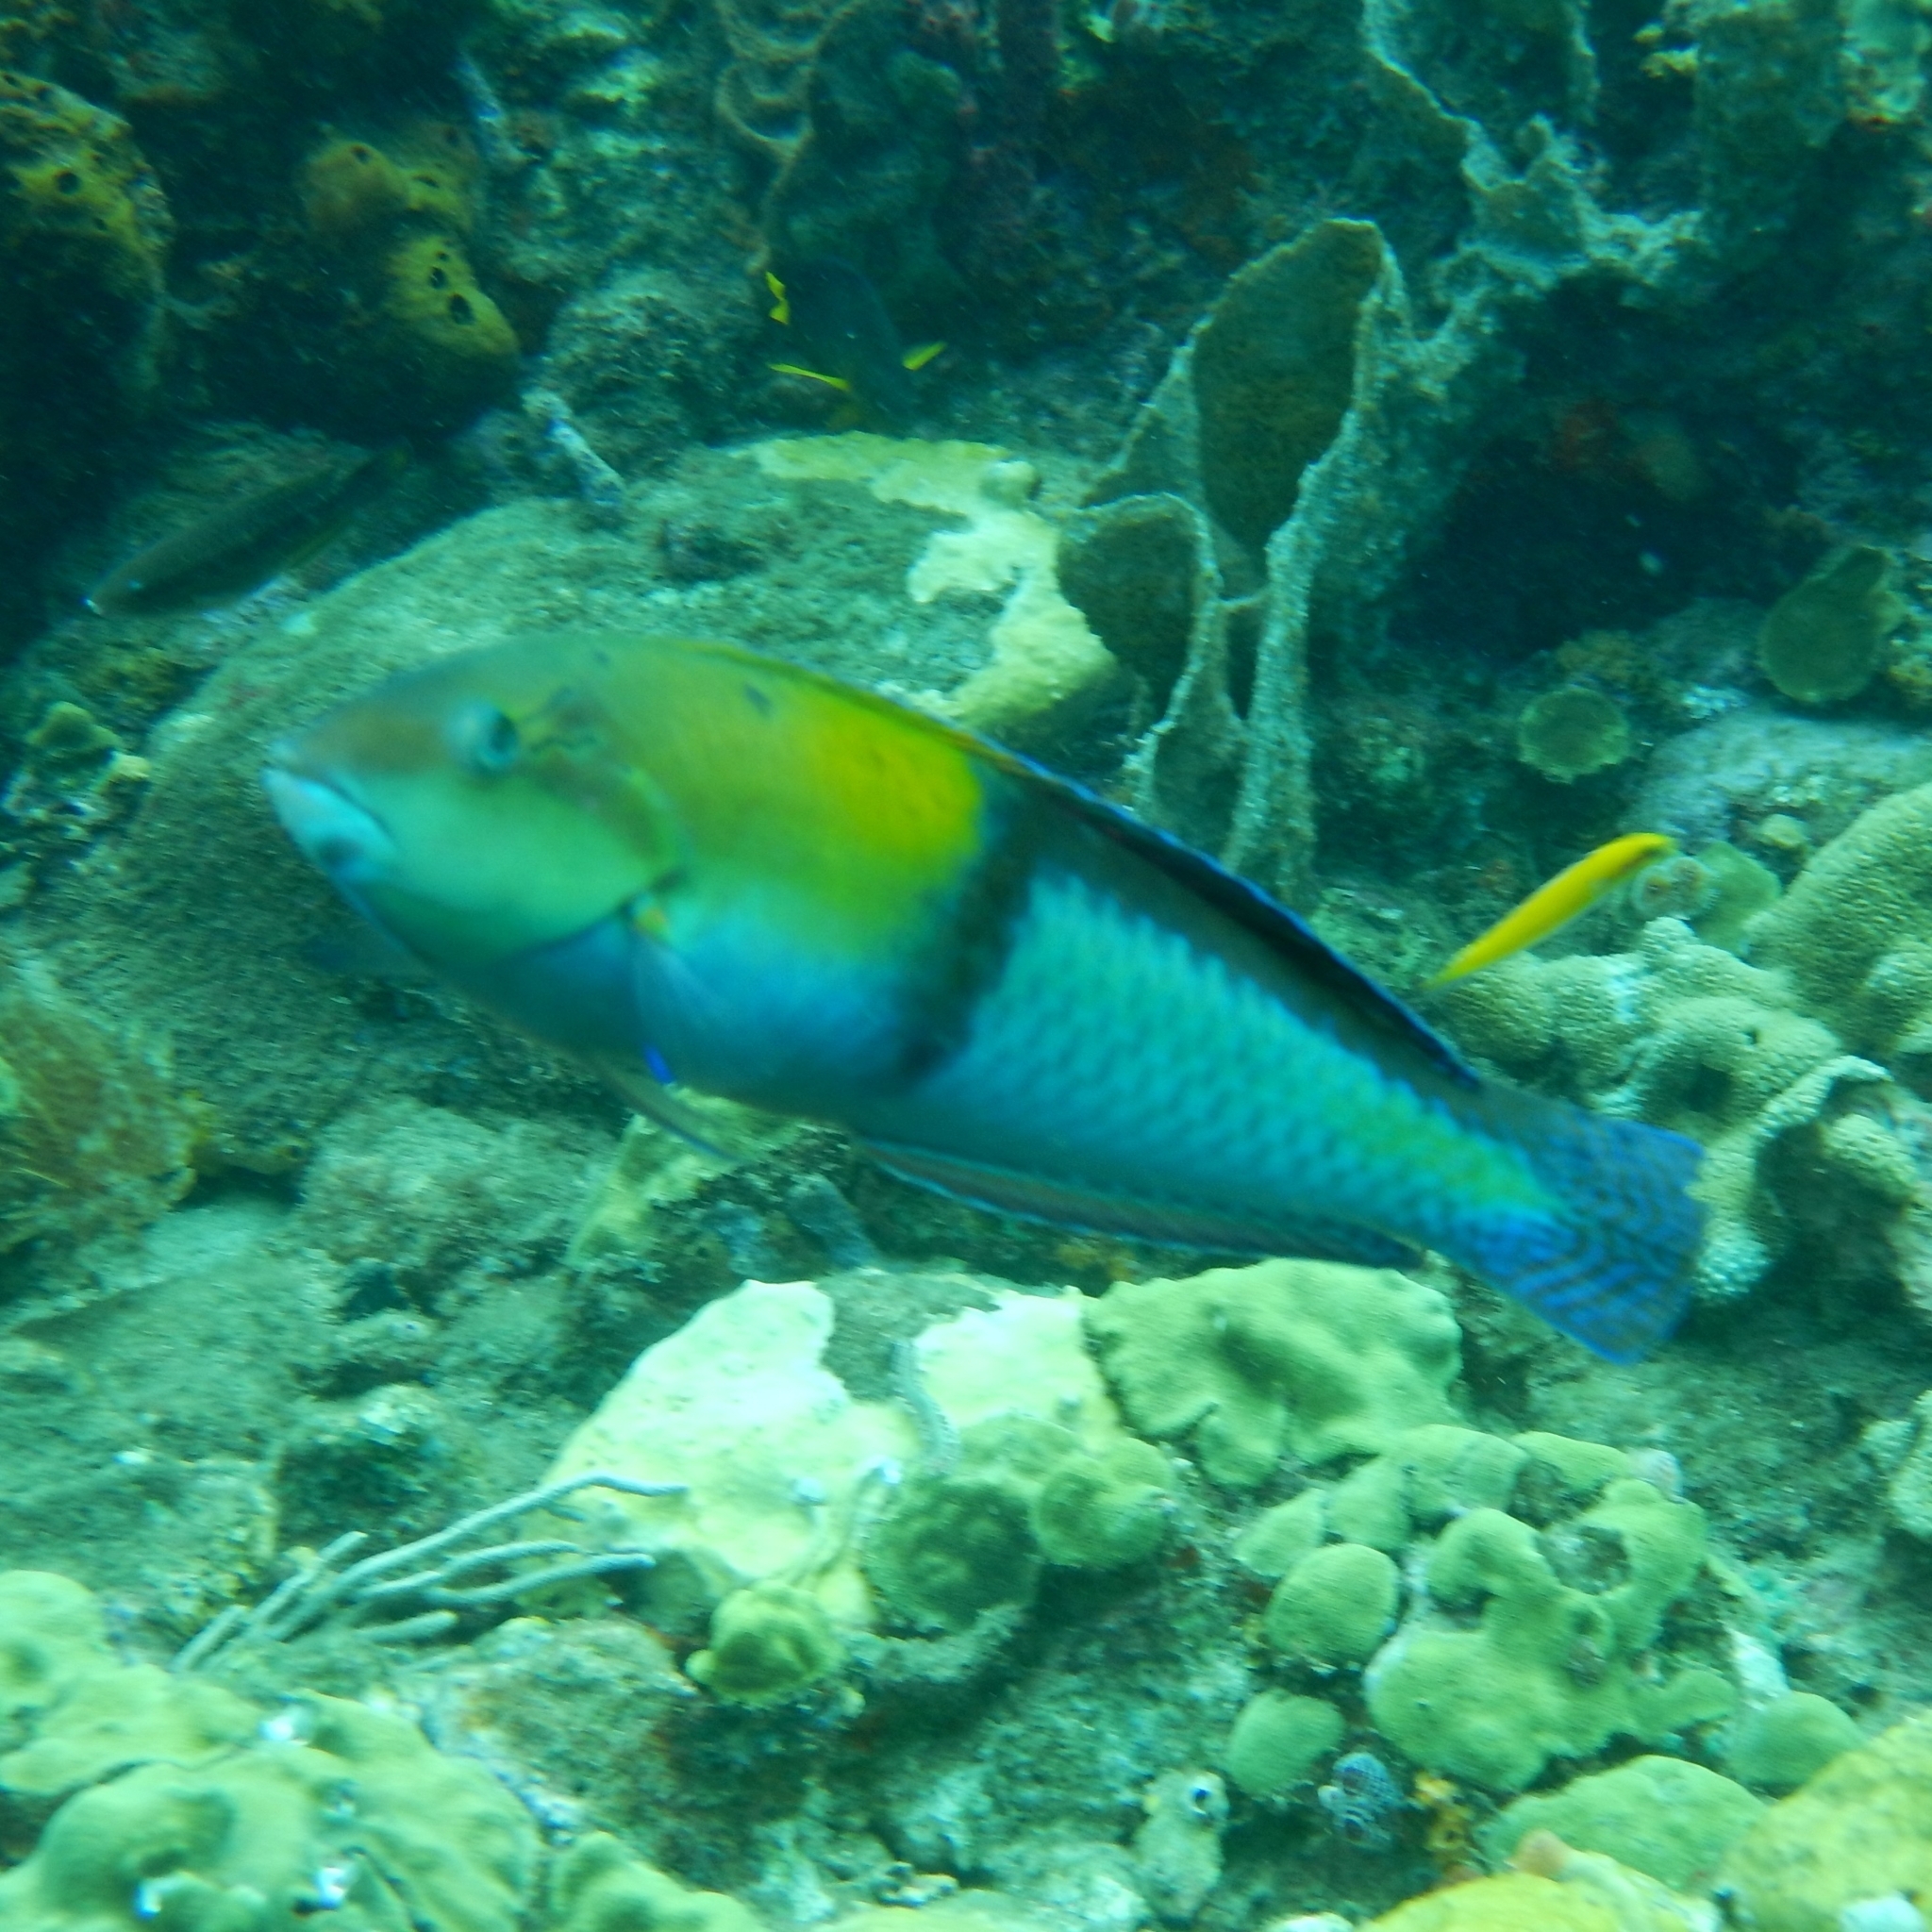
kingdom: Animalia
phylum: Chordata
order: Perciformes
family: Labridae
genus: Halichoeres
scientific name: Halichoeres garnoti
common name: Yellowhead wrasse
